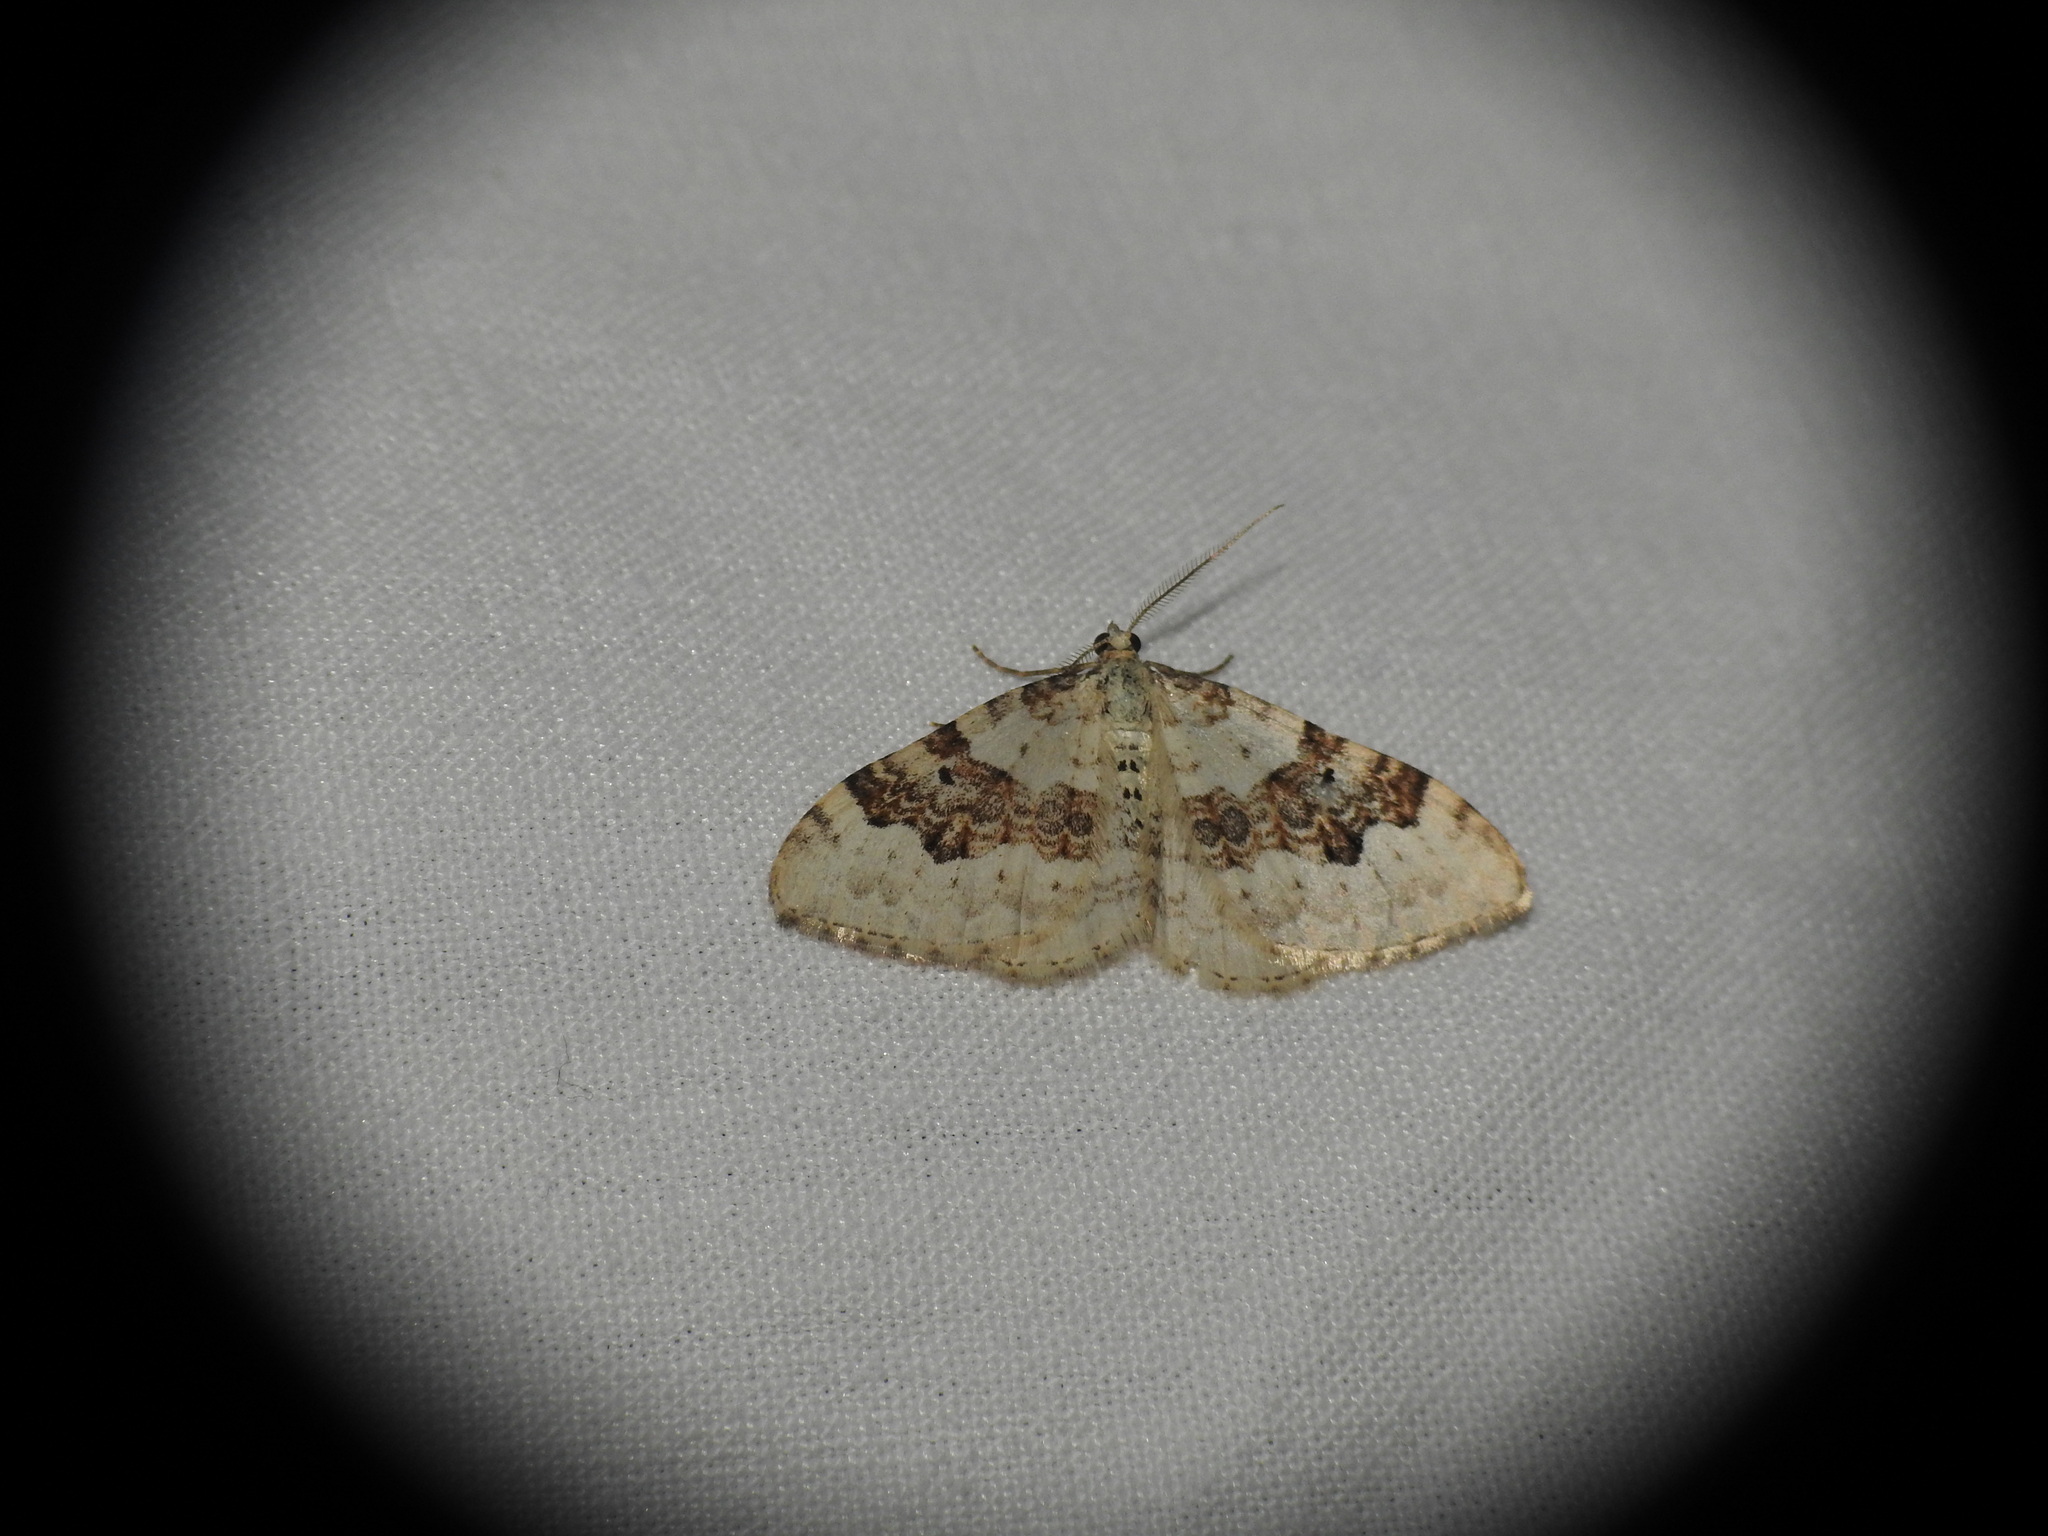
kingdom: Animalia
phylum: Arthropoda
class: Insecta
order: Lepidoptera
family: Geometridae
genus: Xanthorhoe
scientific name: Xanthorhoe montanata
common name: Silver-ground carpet
